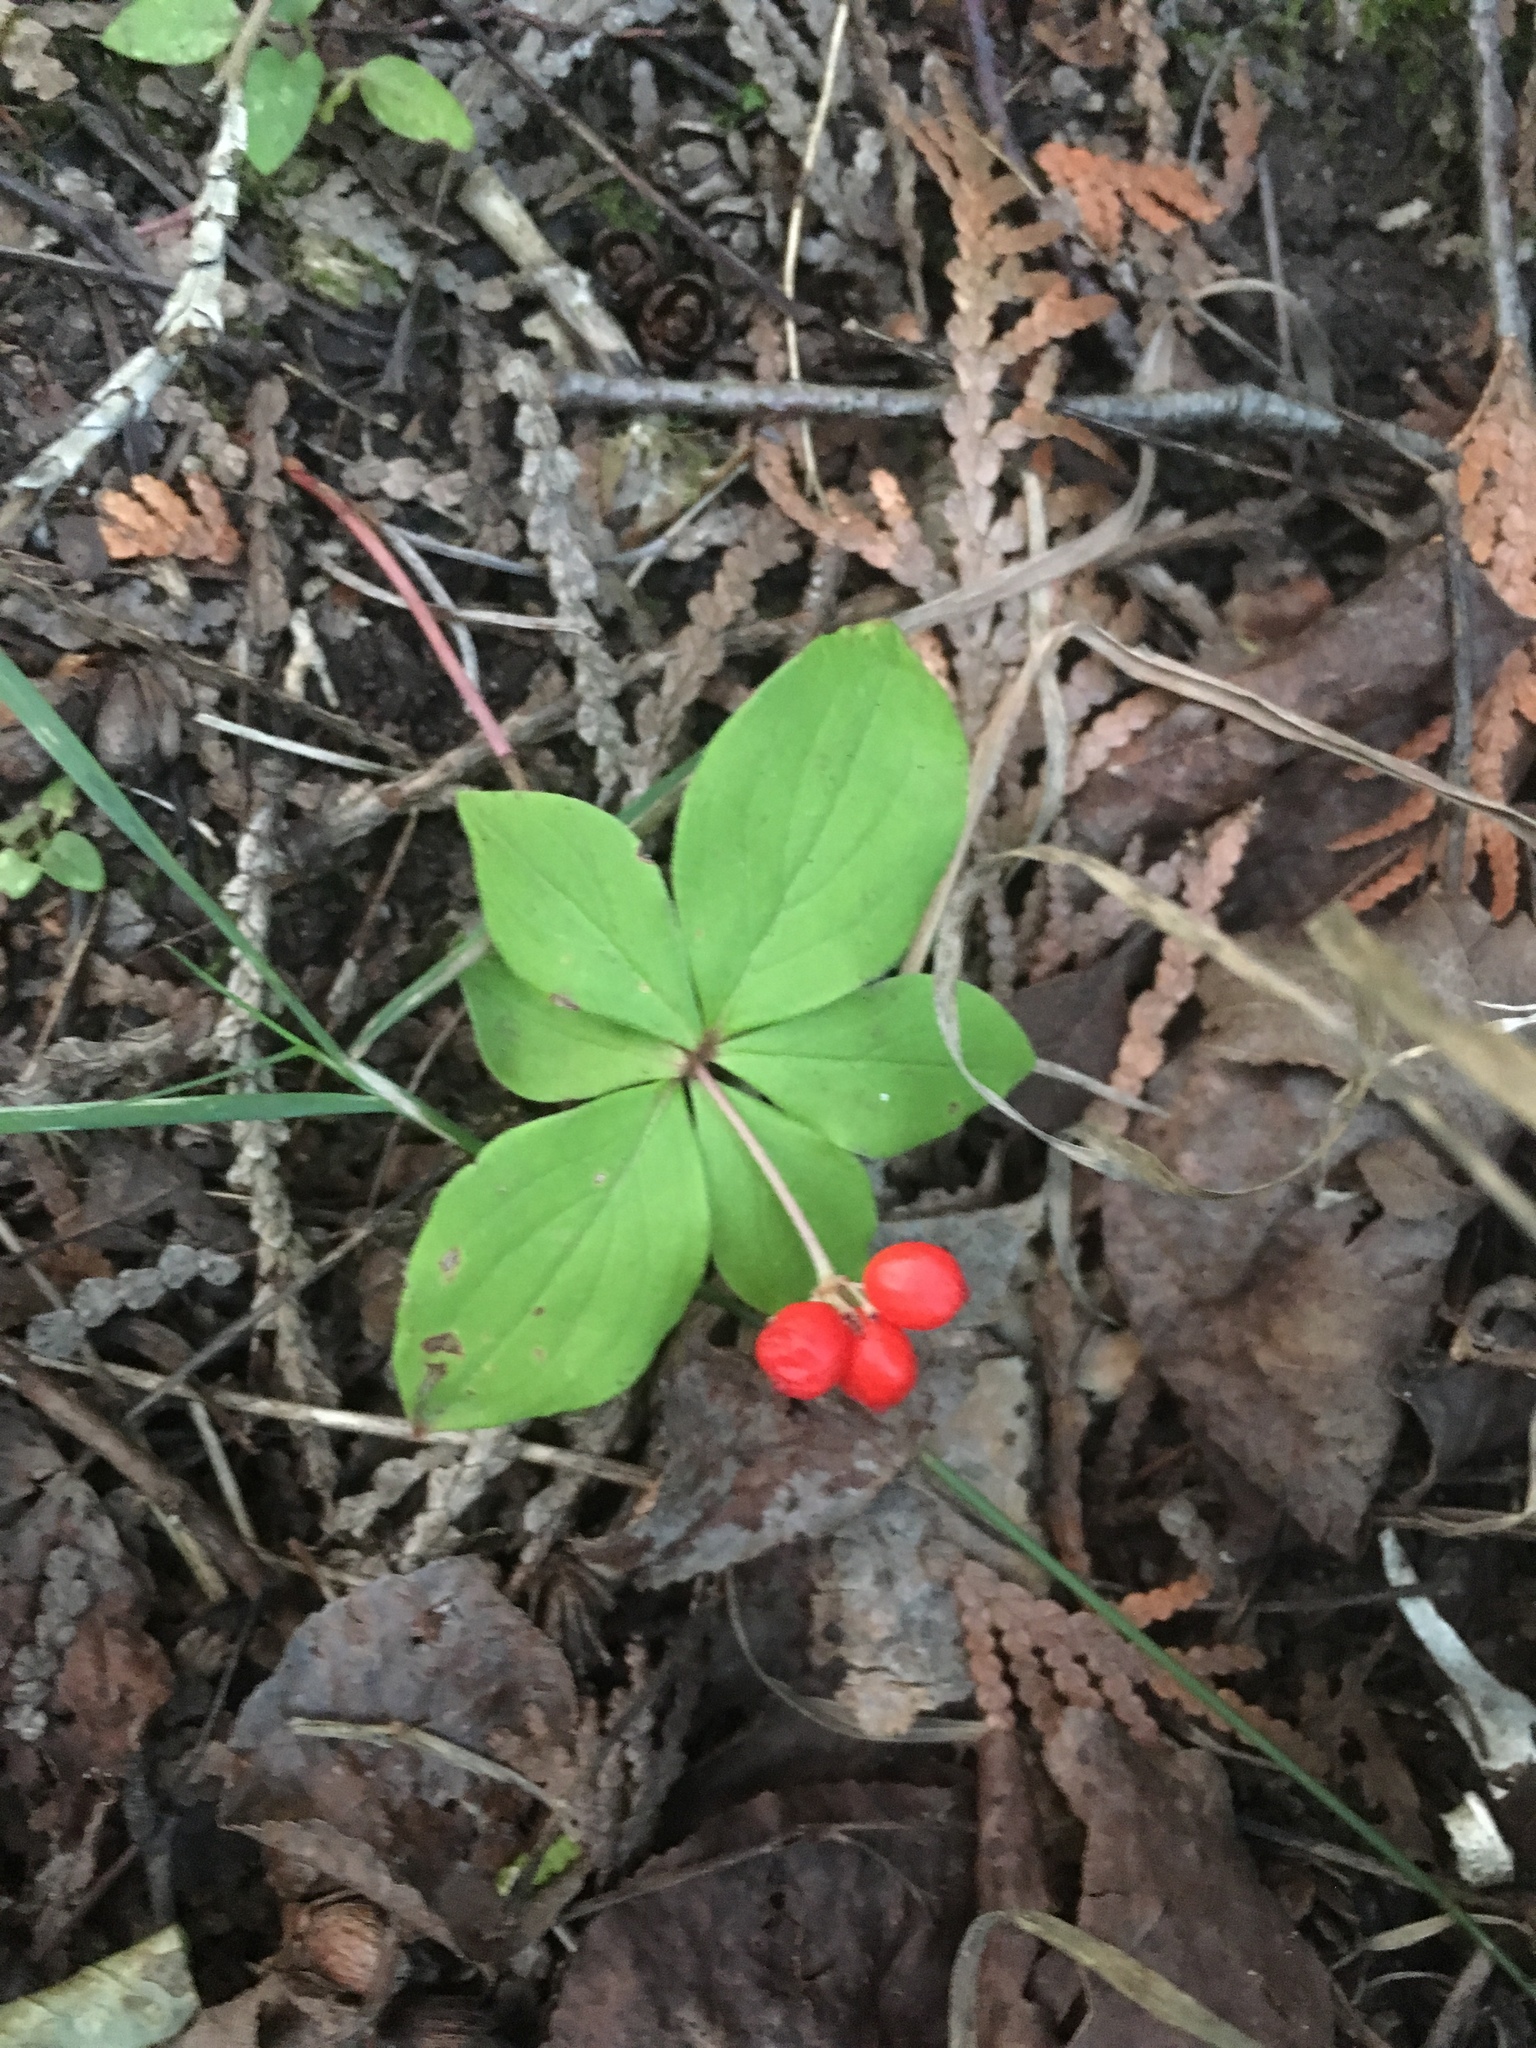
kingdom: Plantae
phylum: Tracheophyta
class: Magnoliopsida
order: Cornales
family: Cornaceae
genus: Cornus
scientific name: Cornus canadensis
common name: Creeping dogwood
